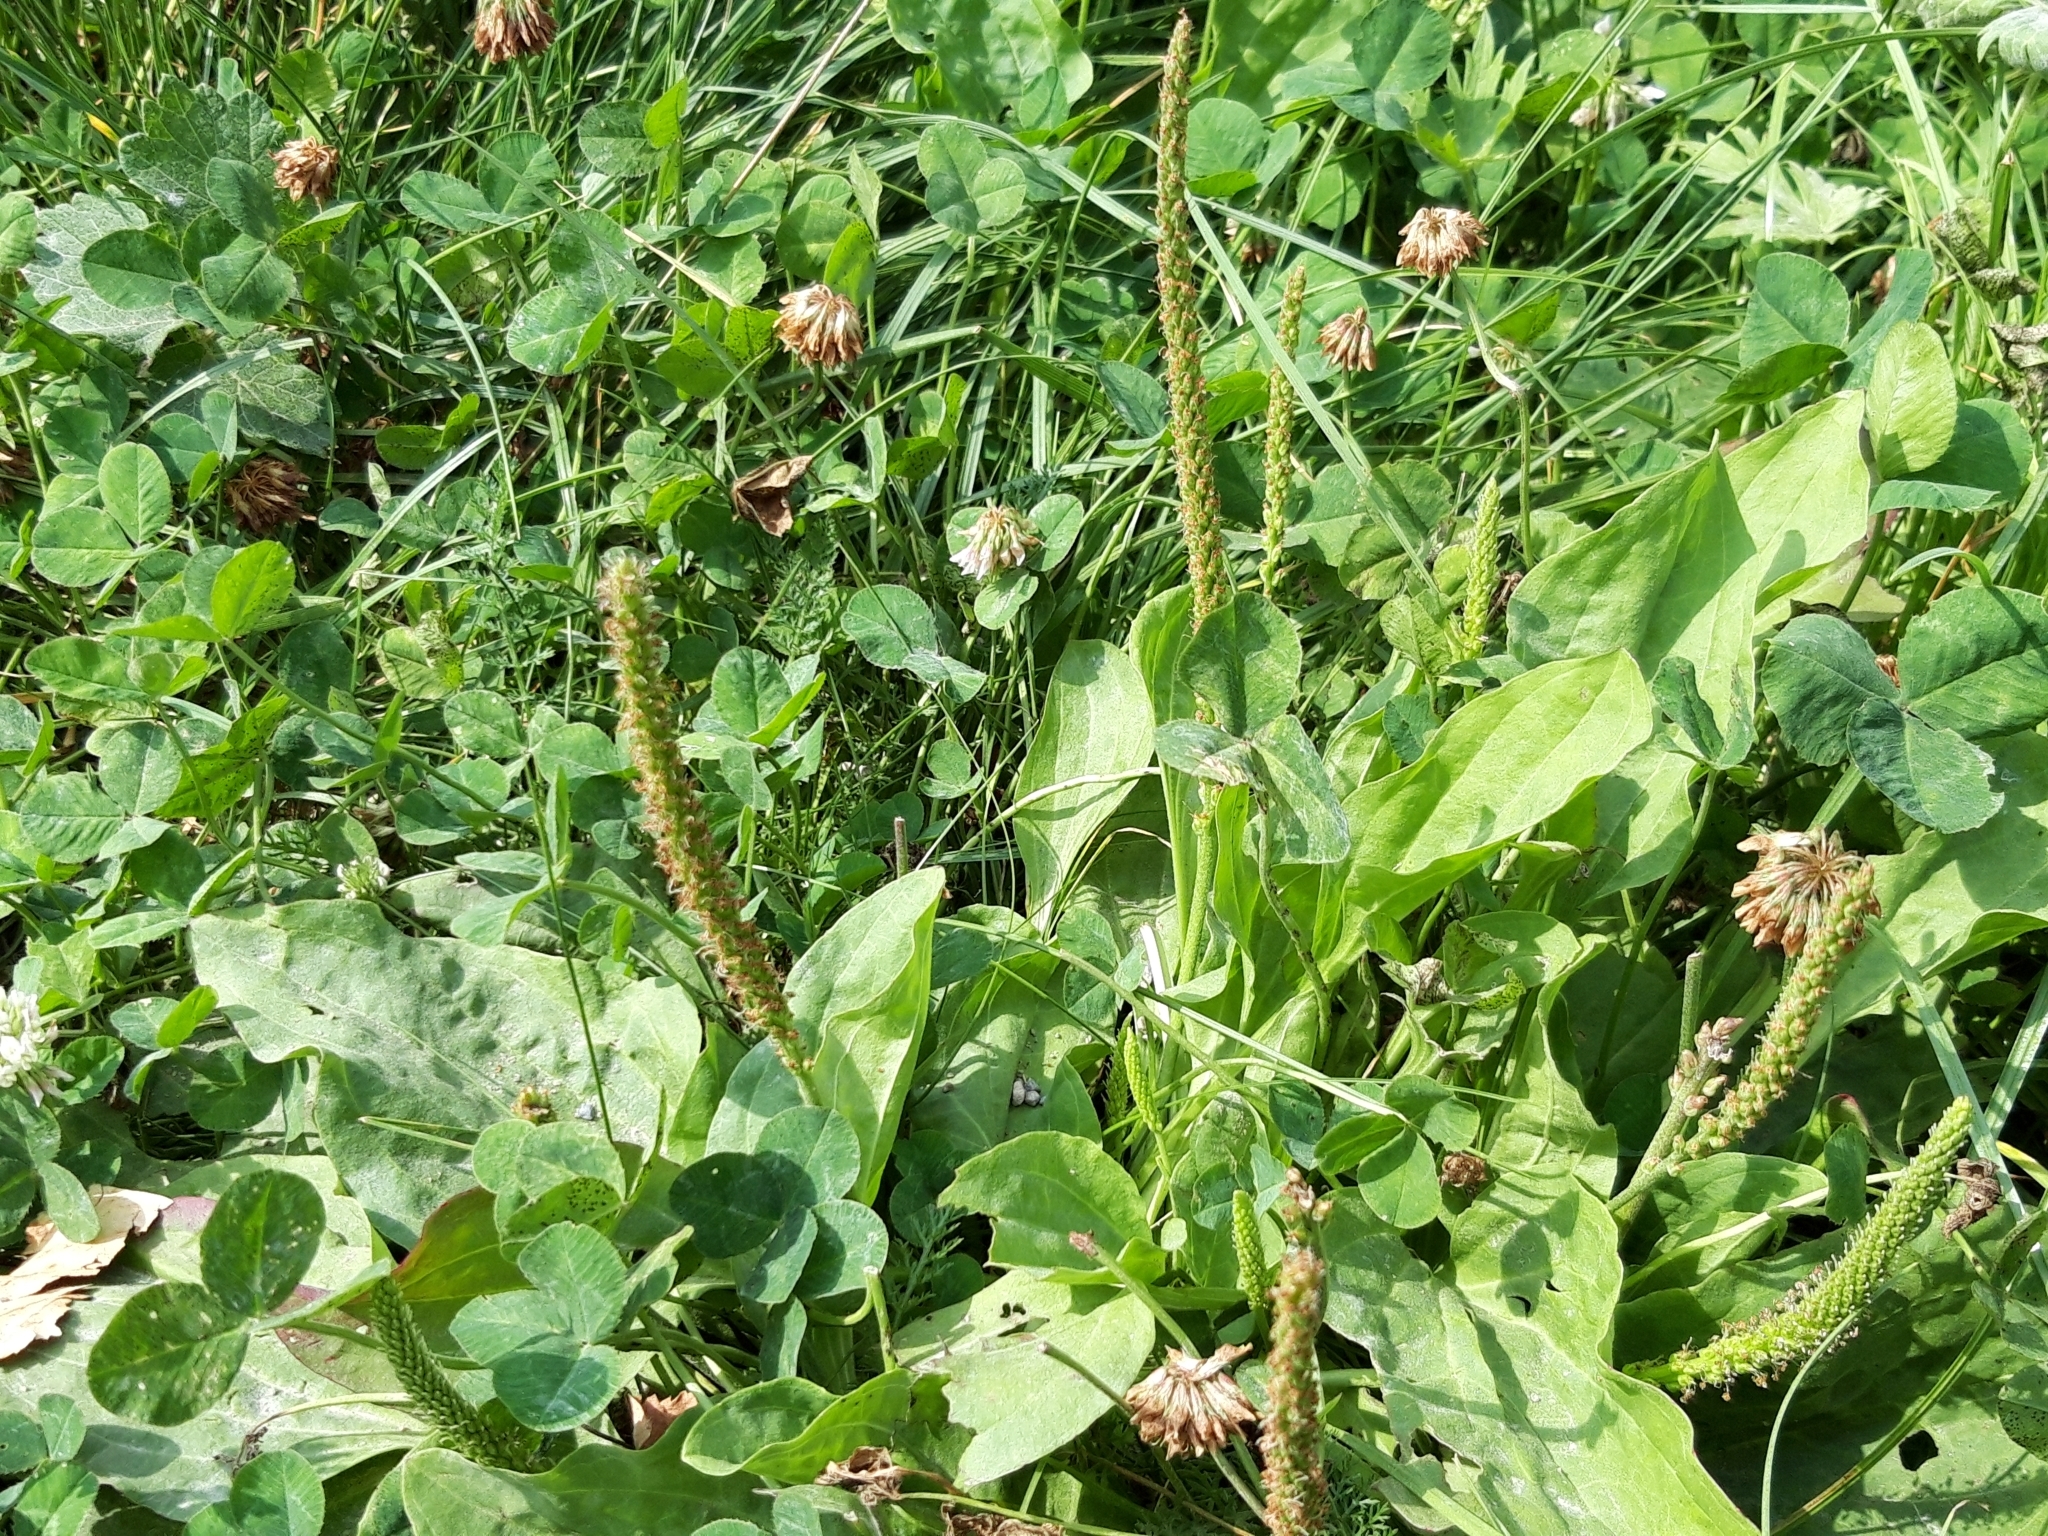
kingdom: Plantae
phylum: Tracheophyta
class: Magnoliopsida
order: Lamiales
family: Plantaginaceae
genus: Plantago
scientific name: Plantago major
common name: Common plantain
